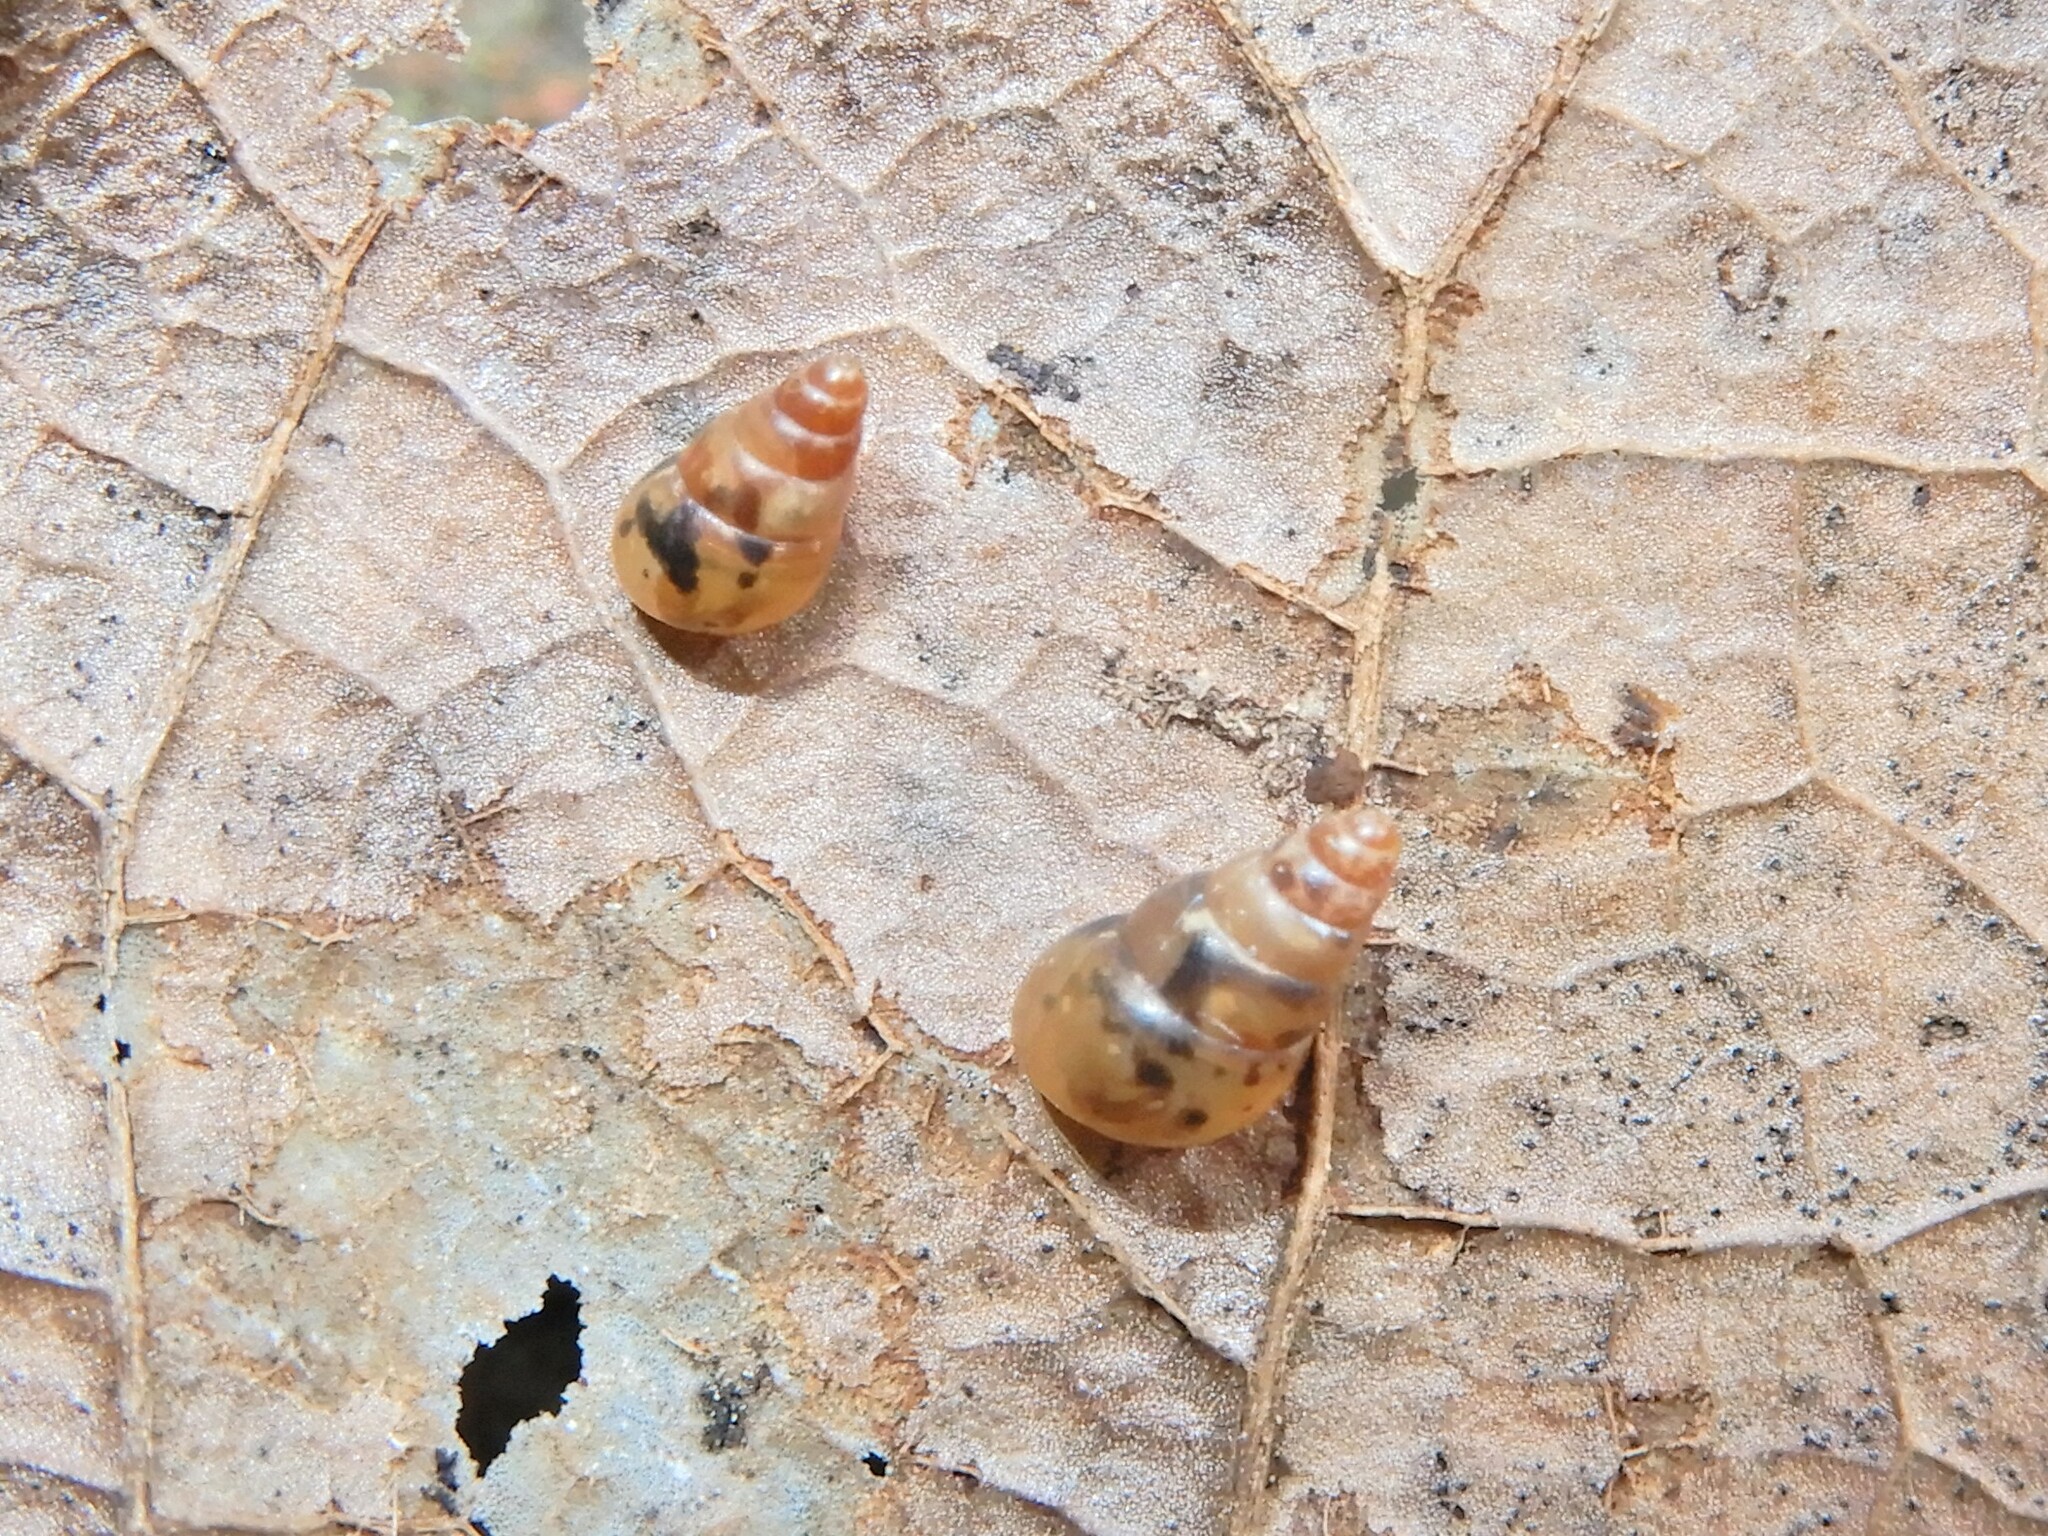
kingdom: Animalia
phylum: Mollusca
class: Gastropoda
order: Stylommatophora
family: Achatinellidae
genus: Tornatellides
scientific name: Tornatellides subperforatus
